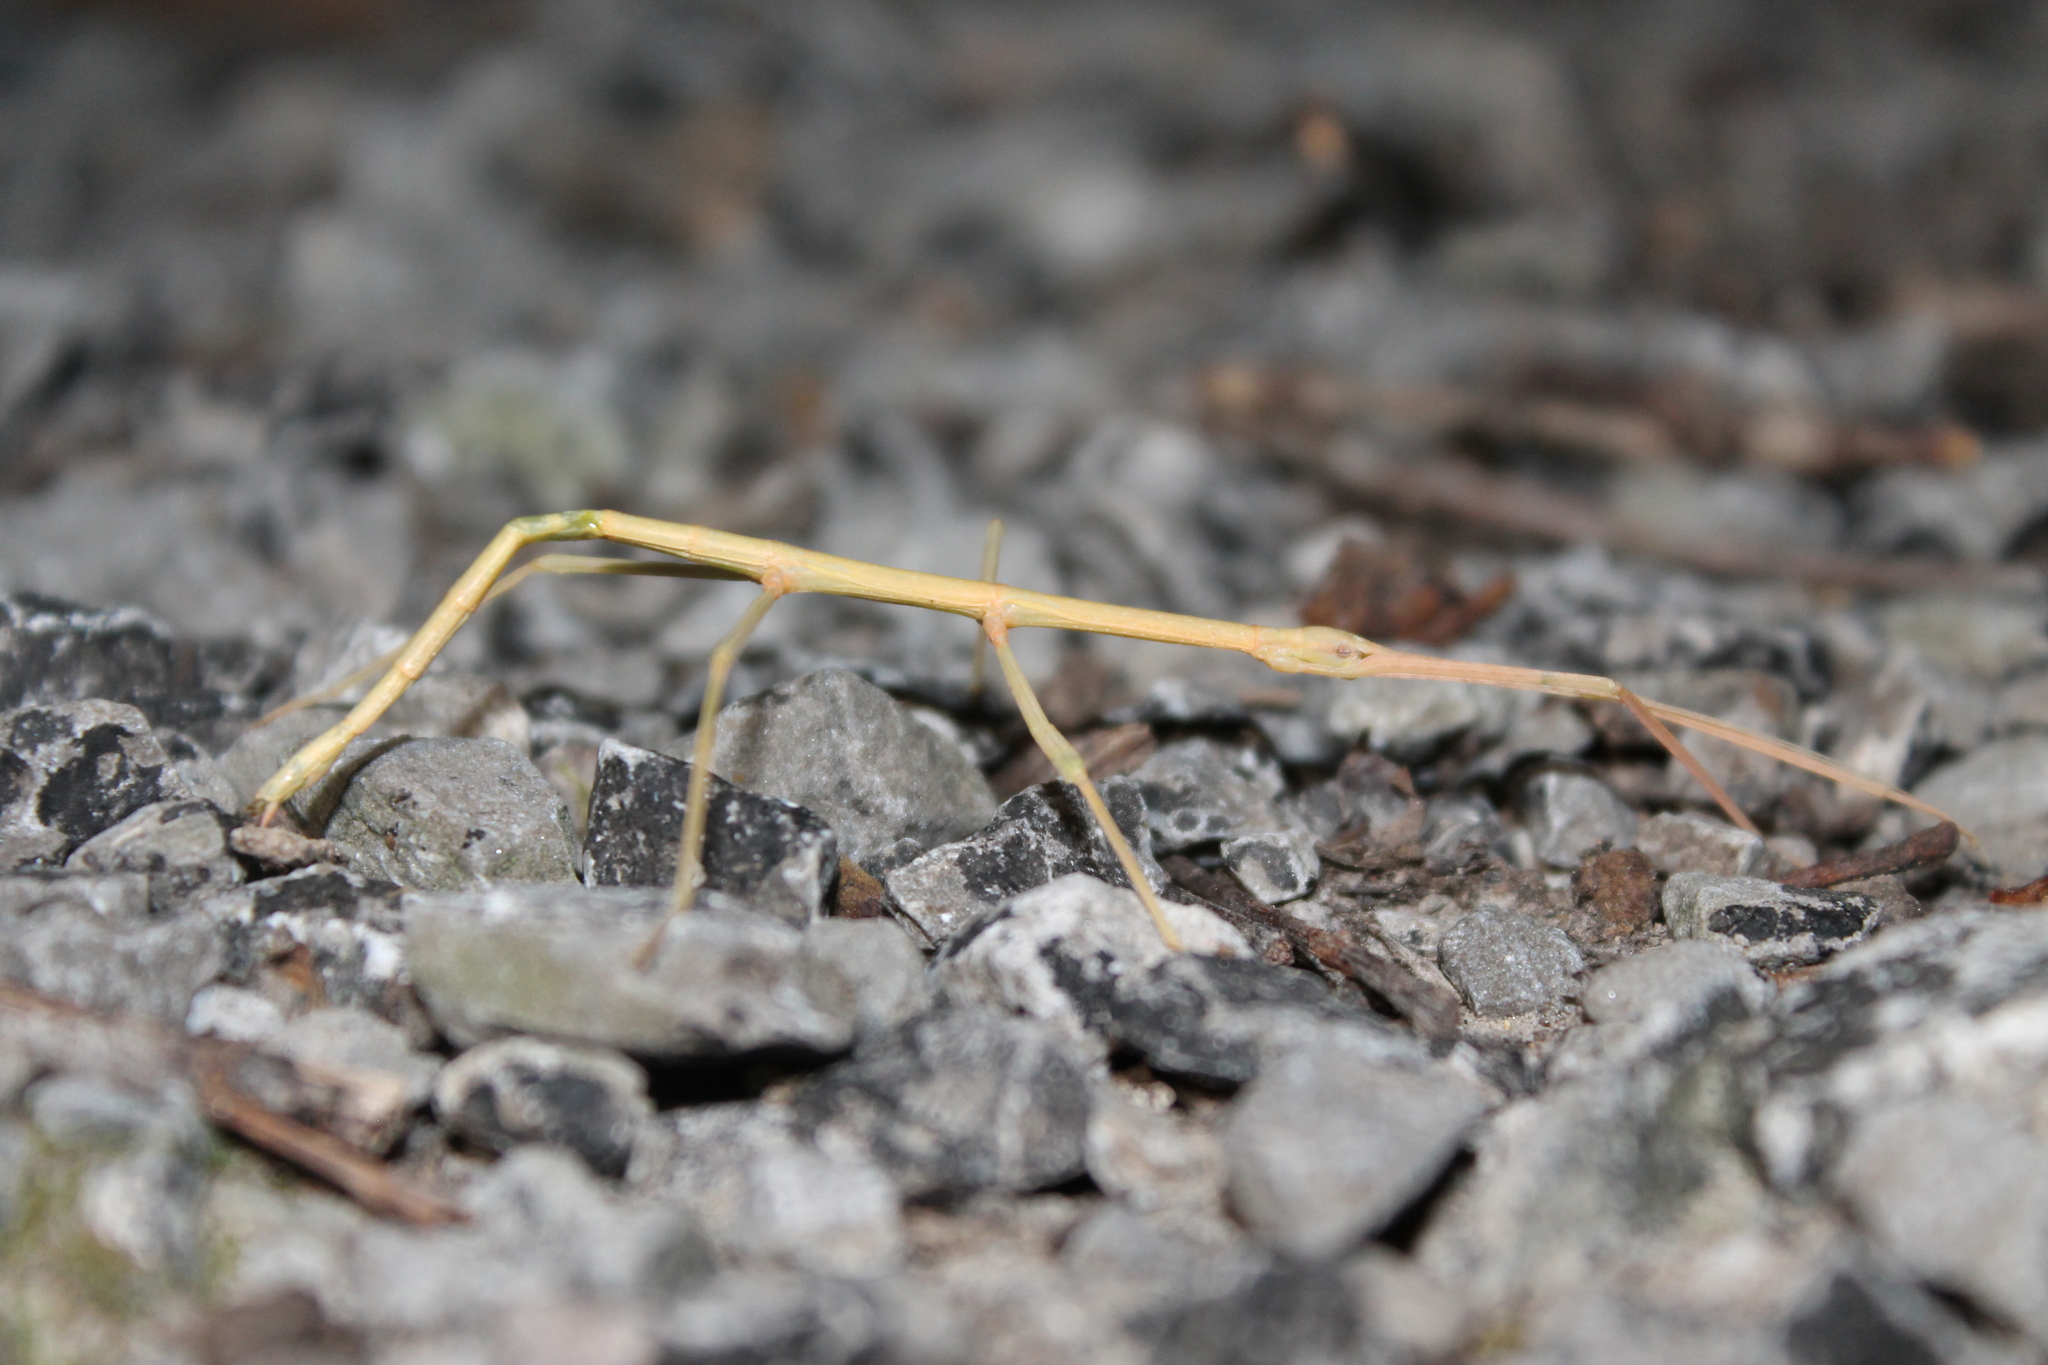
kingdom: Animalia
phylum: Arthropoda
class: Insecta
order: Phasmida
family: Diapheromeridae
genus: Diapheromera
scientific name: Diapheromera femorata
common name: Common american walkingstick
